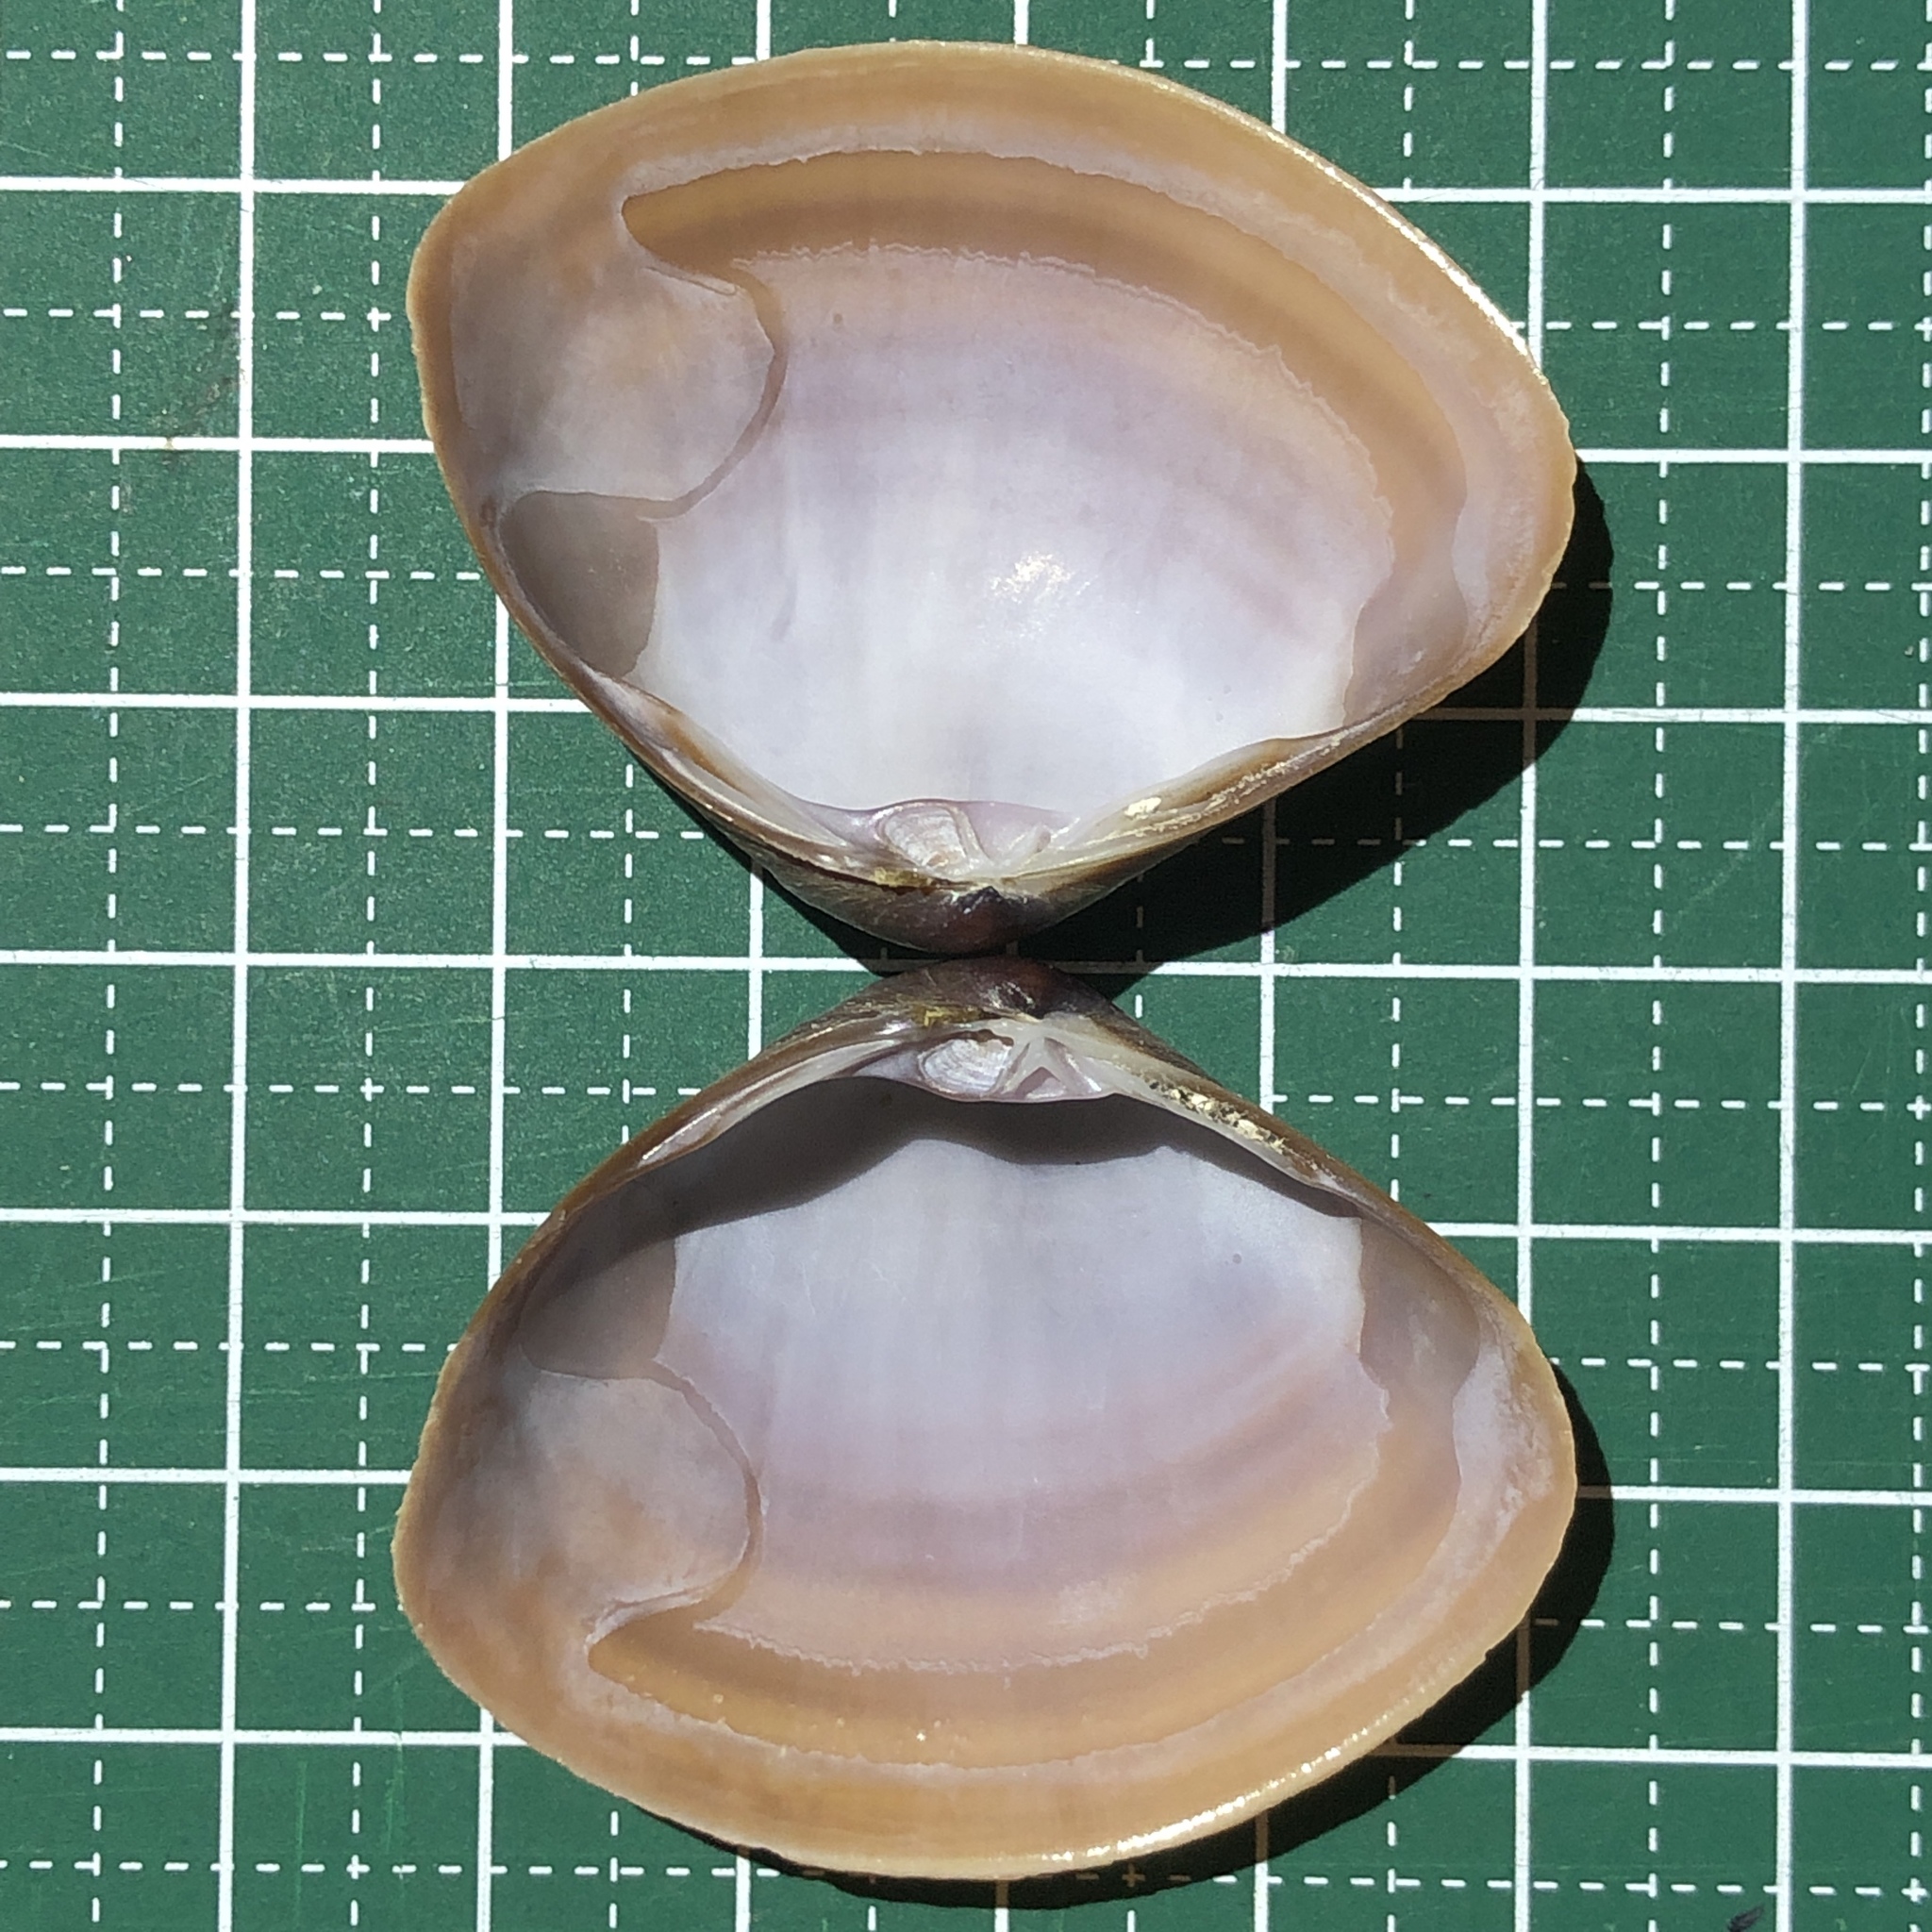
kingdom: Animalia
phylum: Mollusca
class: Bivalvia
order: Venerida
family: Mactridae
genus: Mactra
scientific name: Mactra grandis
